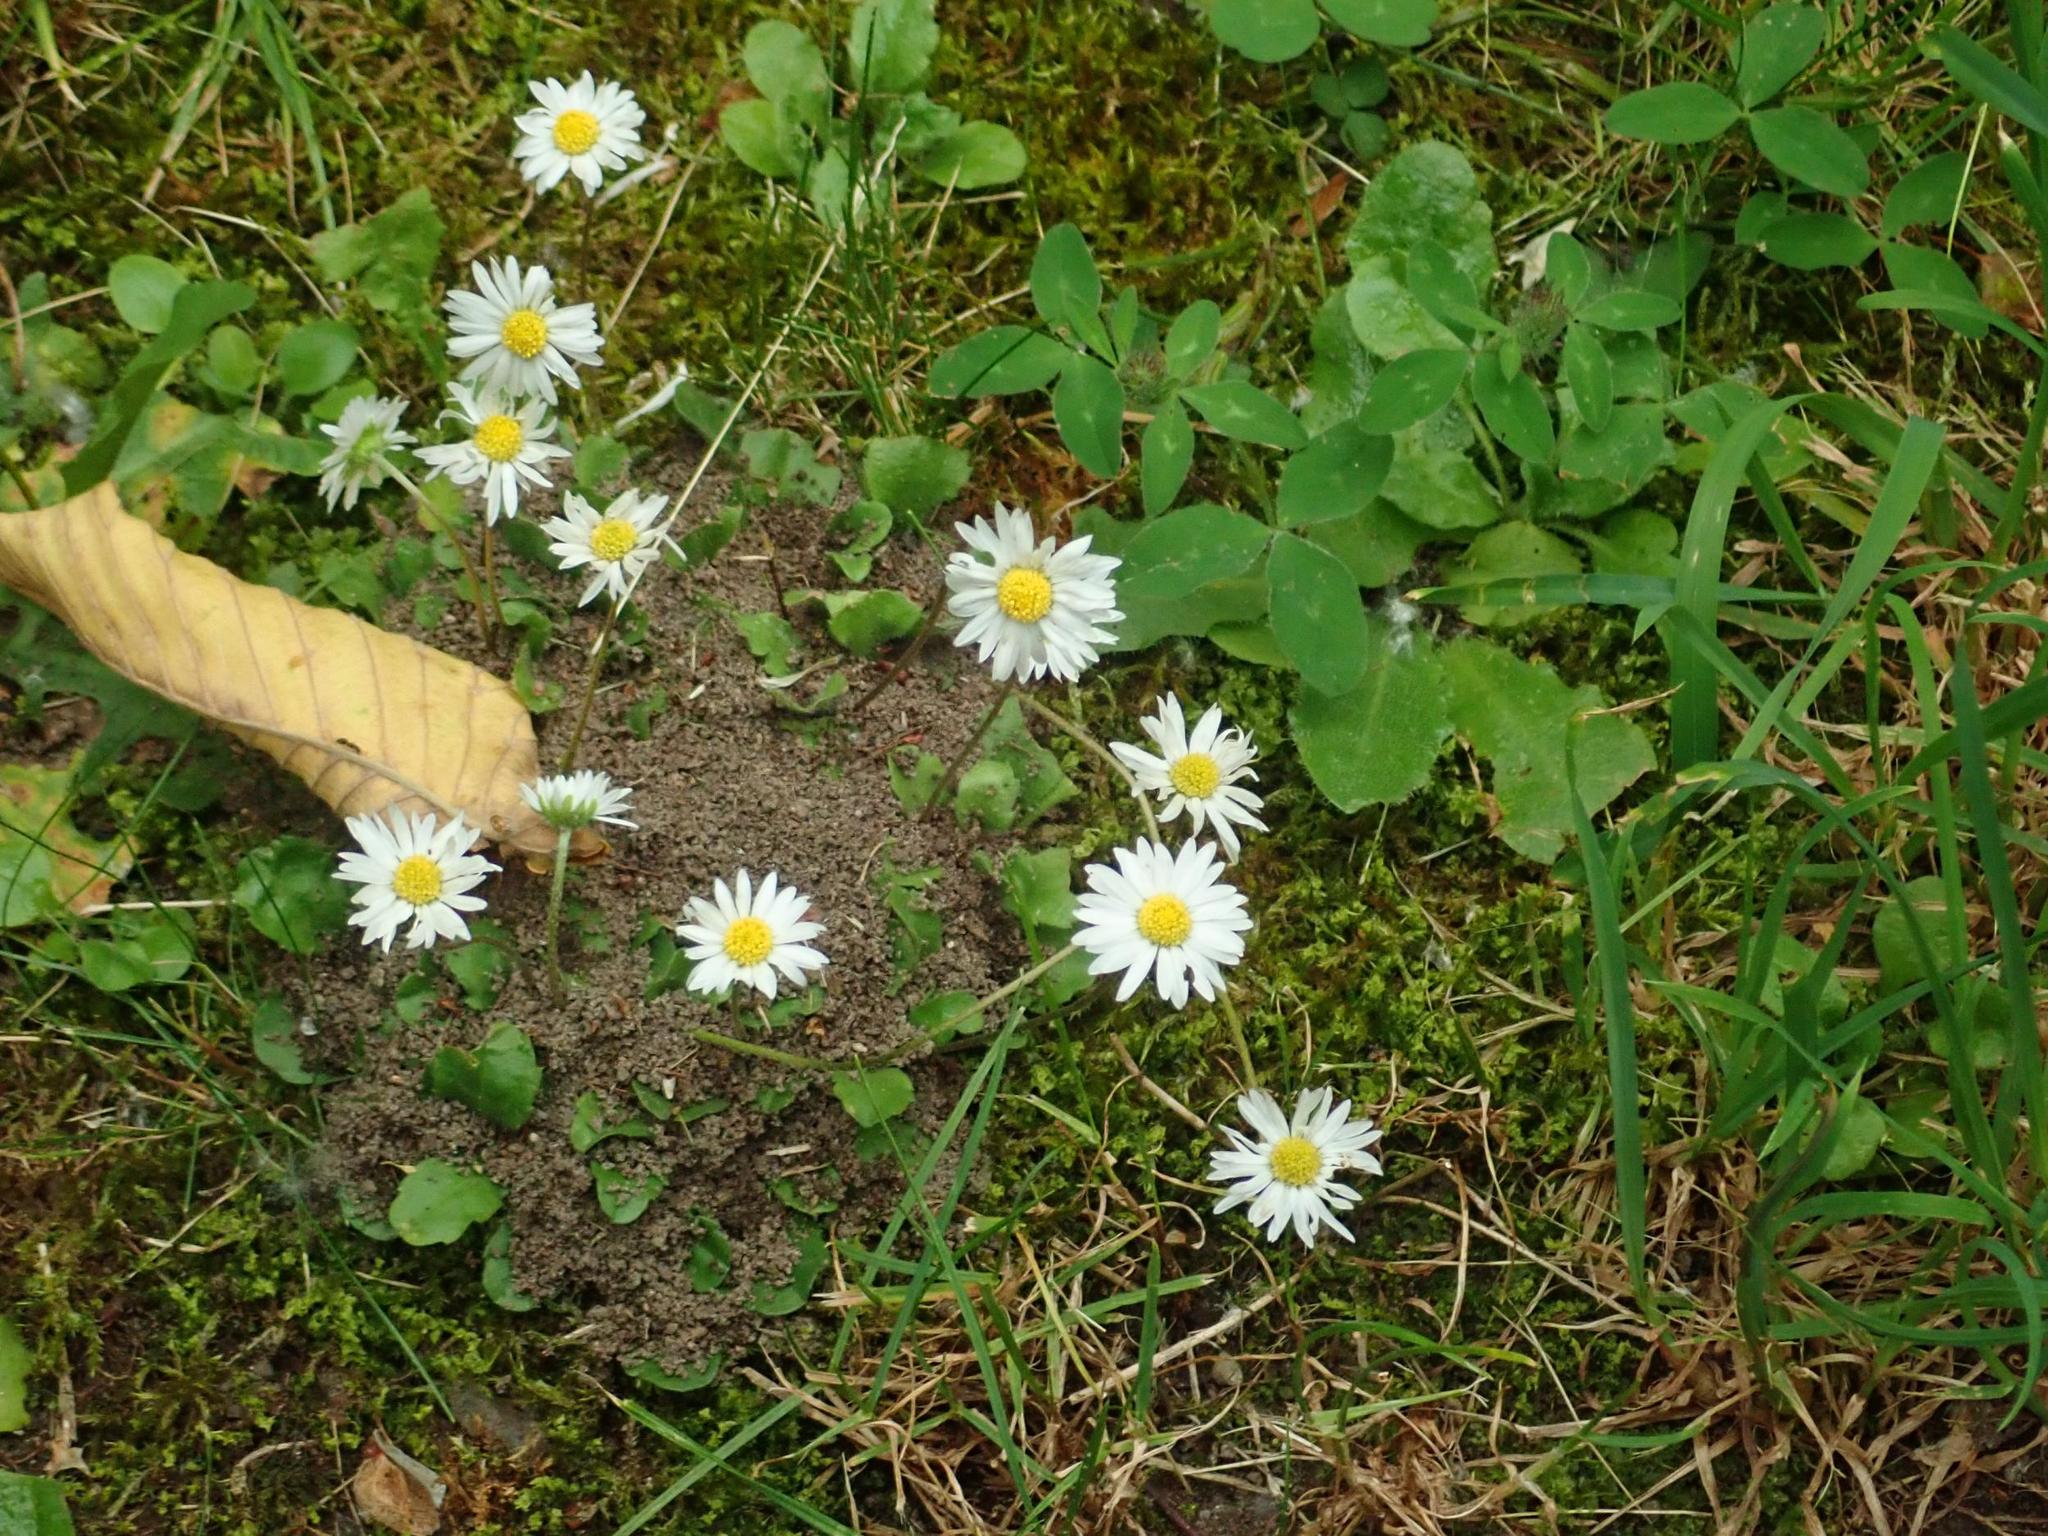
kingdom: Plantae
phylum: Tracheophyta
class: Magnoliopsida
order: Asterales
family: Asteraceae
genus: Bellis
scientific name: Bellis perennis
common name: Lawndaisy
